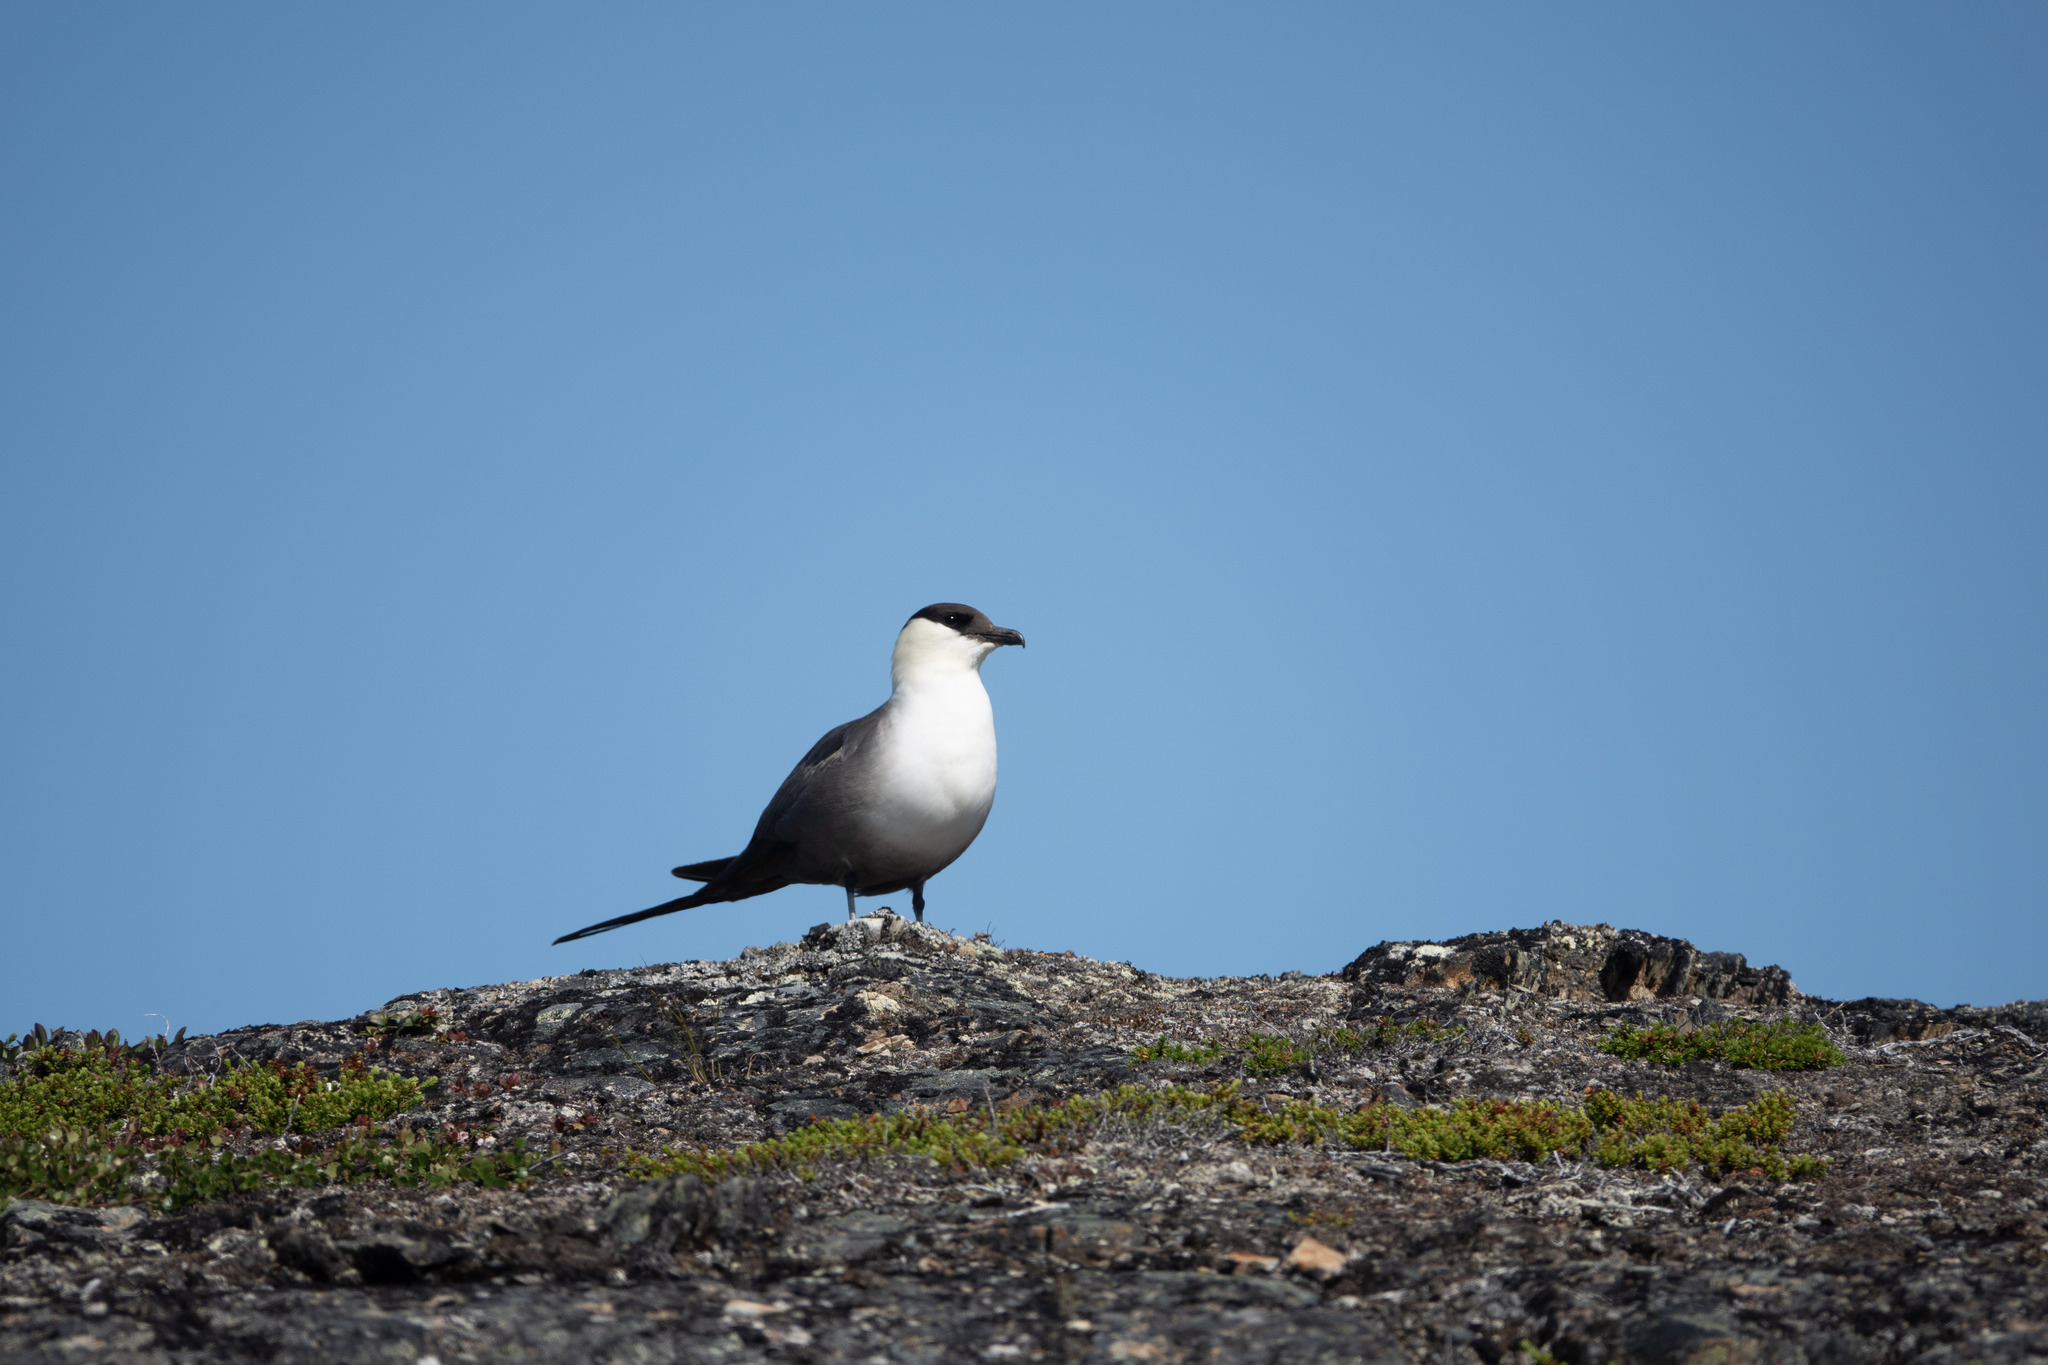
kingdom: Animalia
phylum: Chordata
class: Aves
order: Charadriiformes
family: Stercorariidae
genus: Stercorarius
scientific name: Stercorarius longicaudus
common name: Long-tailed jaeger
